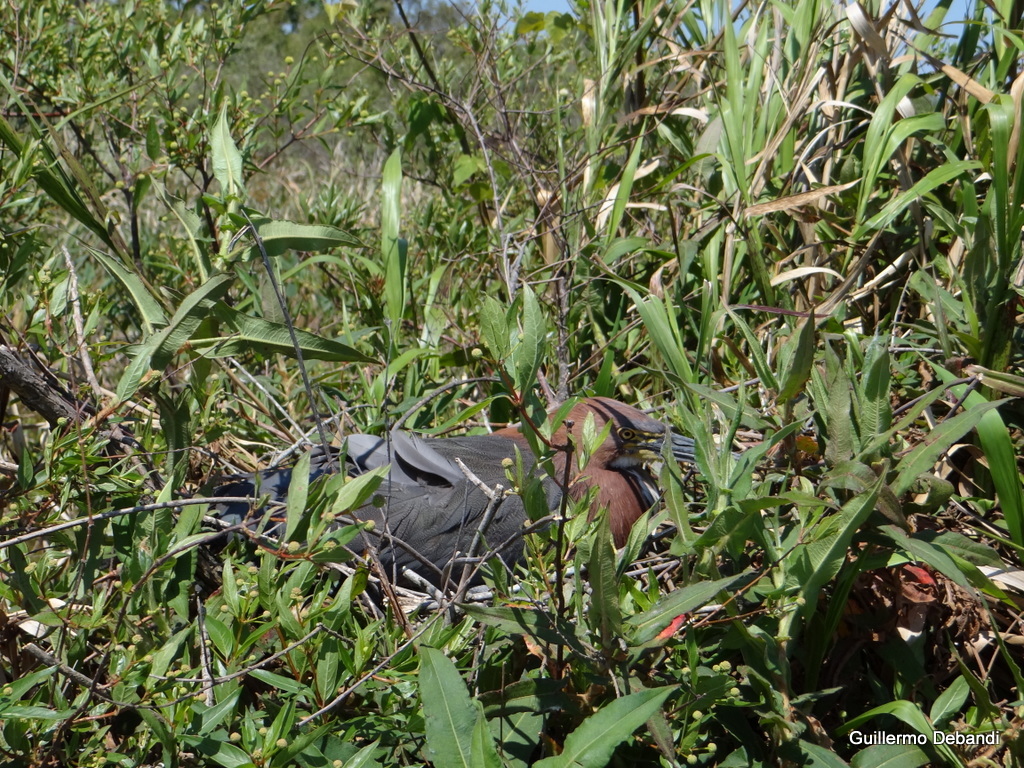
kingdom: Animalia
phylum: Chordata
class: Aves
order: Pelecaniformes
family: Ardeidae
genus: Tigrisoma
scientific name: Tigrisoma lineatum
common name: Rufescent tiger-heron
